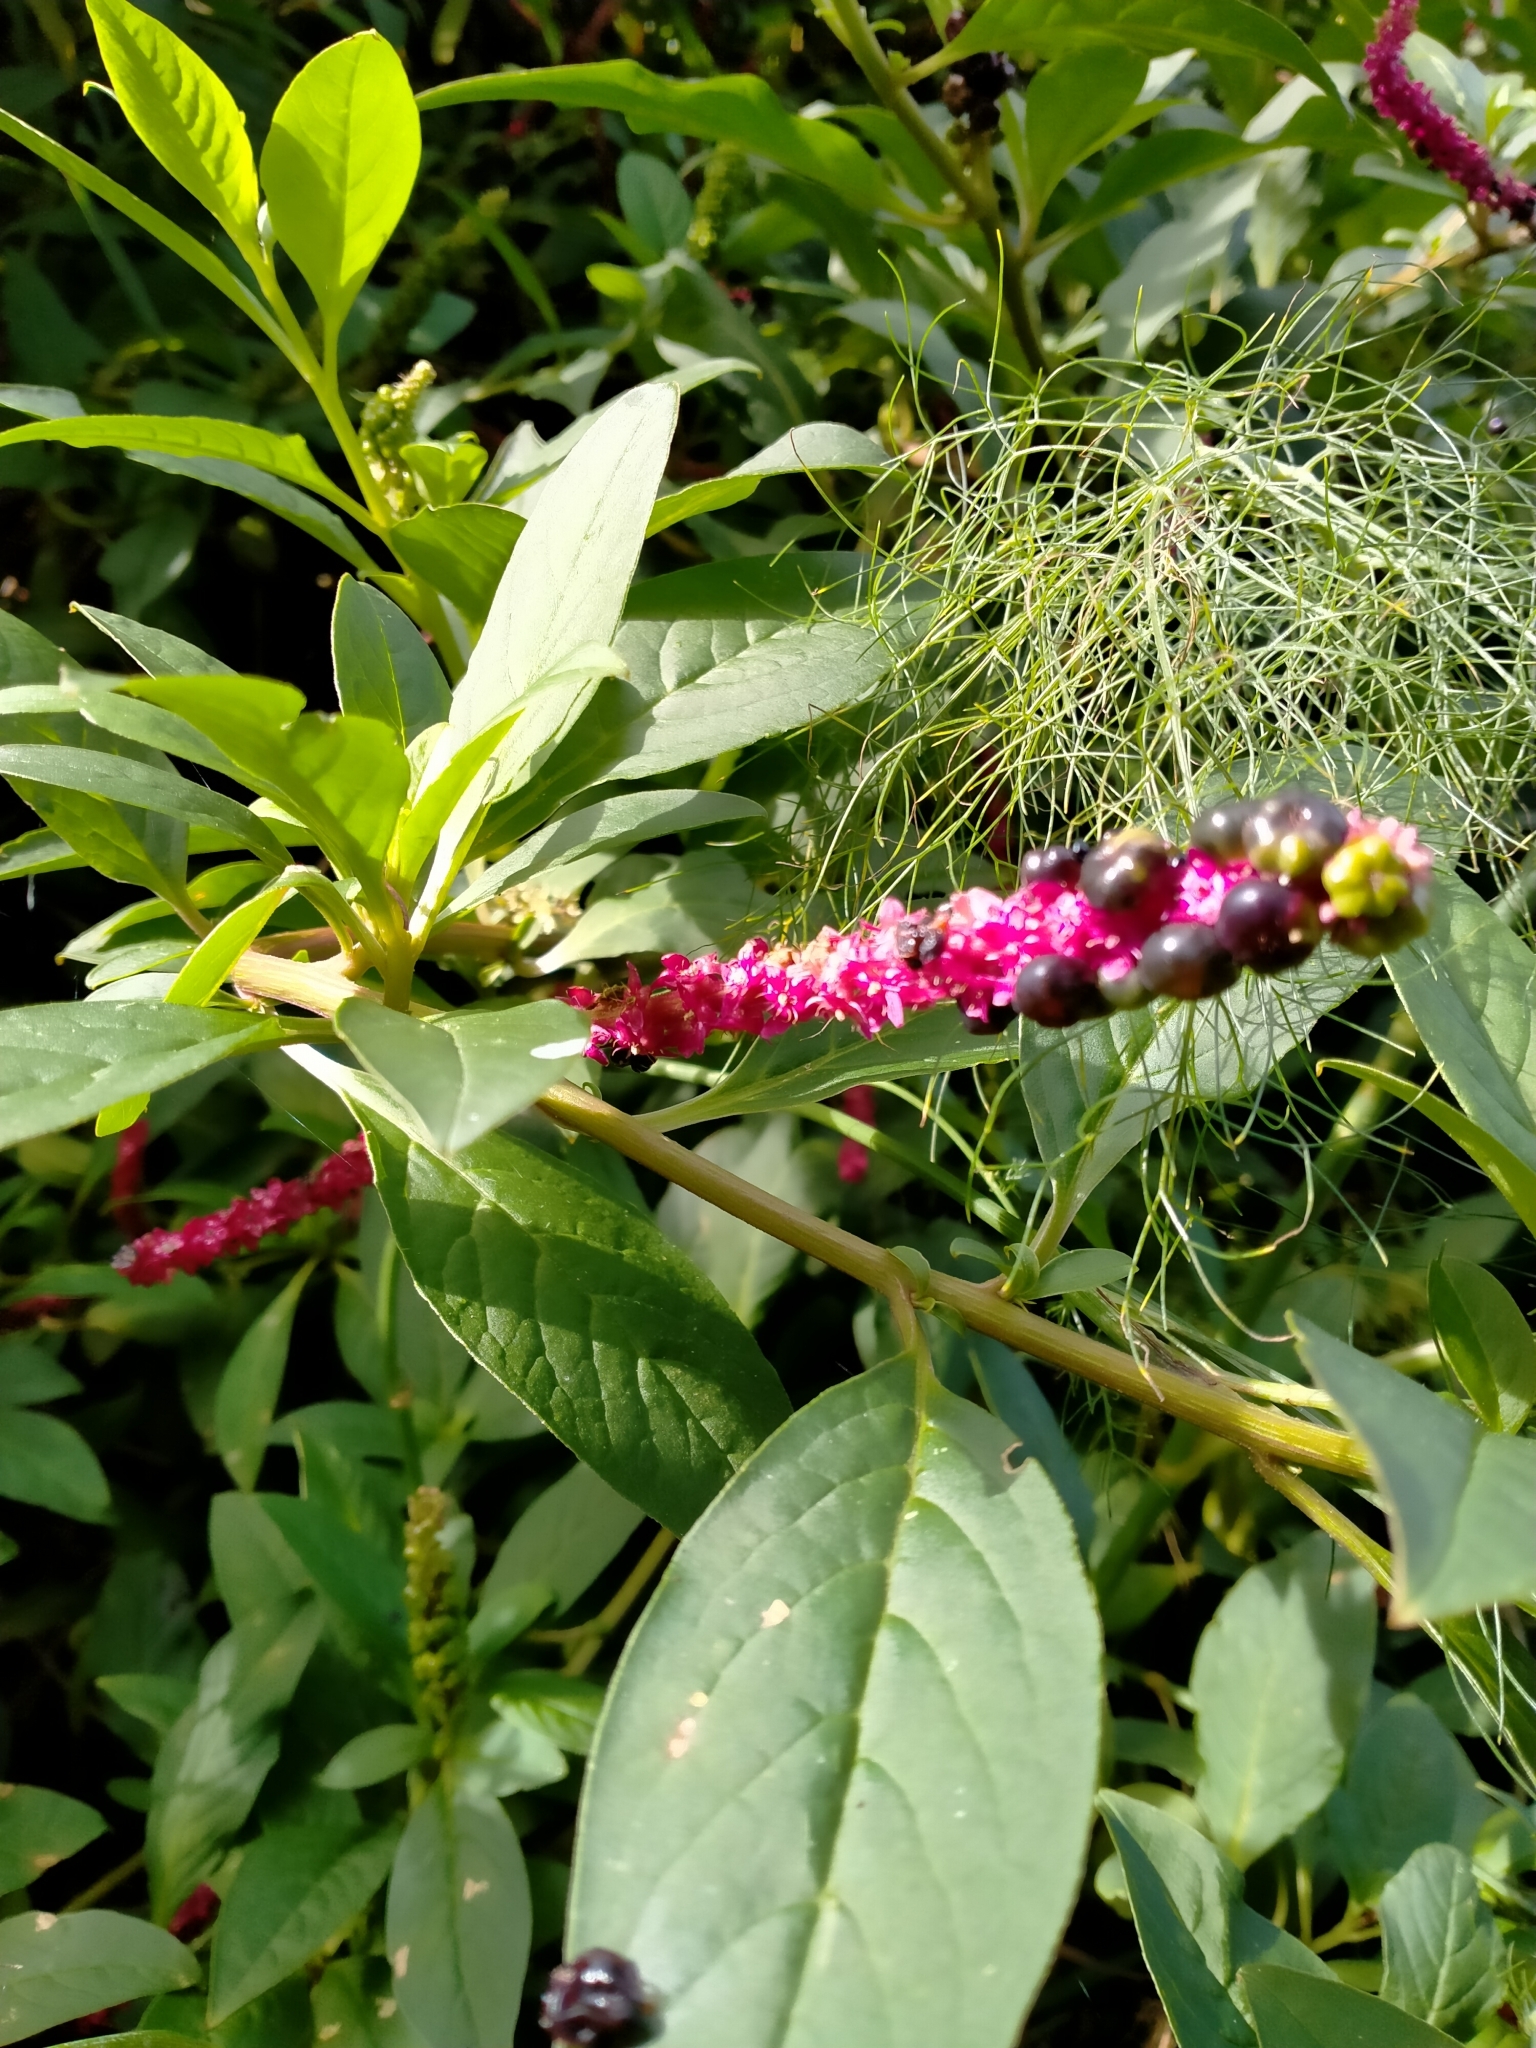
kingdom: Plantae
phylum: Tracheophyta
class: Magnoliopsida
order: Caryophyllales
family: Phytolaccaceae
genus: Phytolacca
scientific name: Phytolacca icosandra
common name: Button pokeweed
